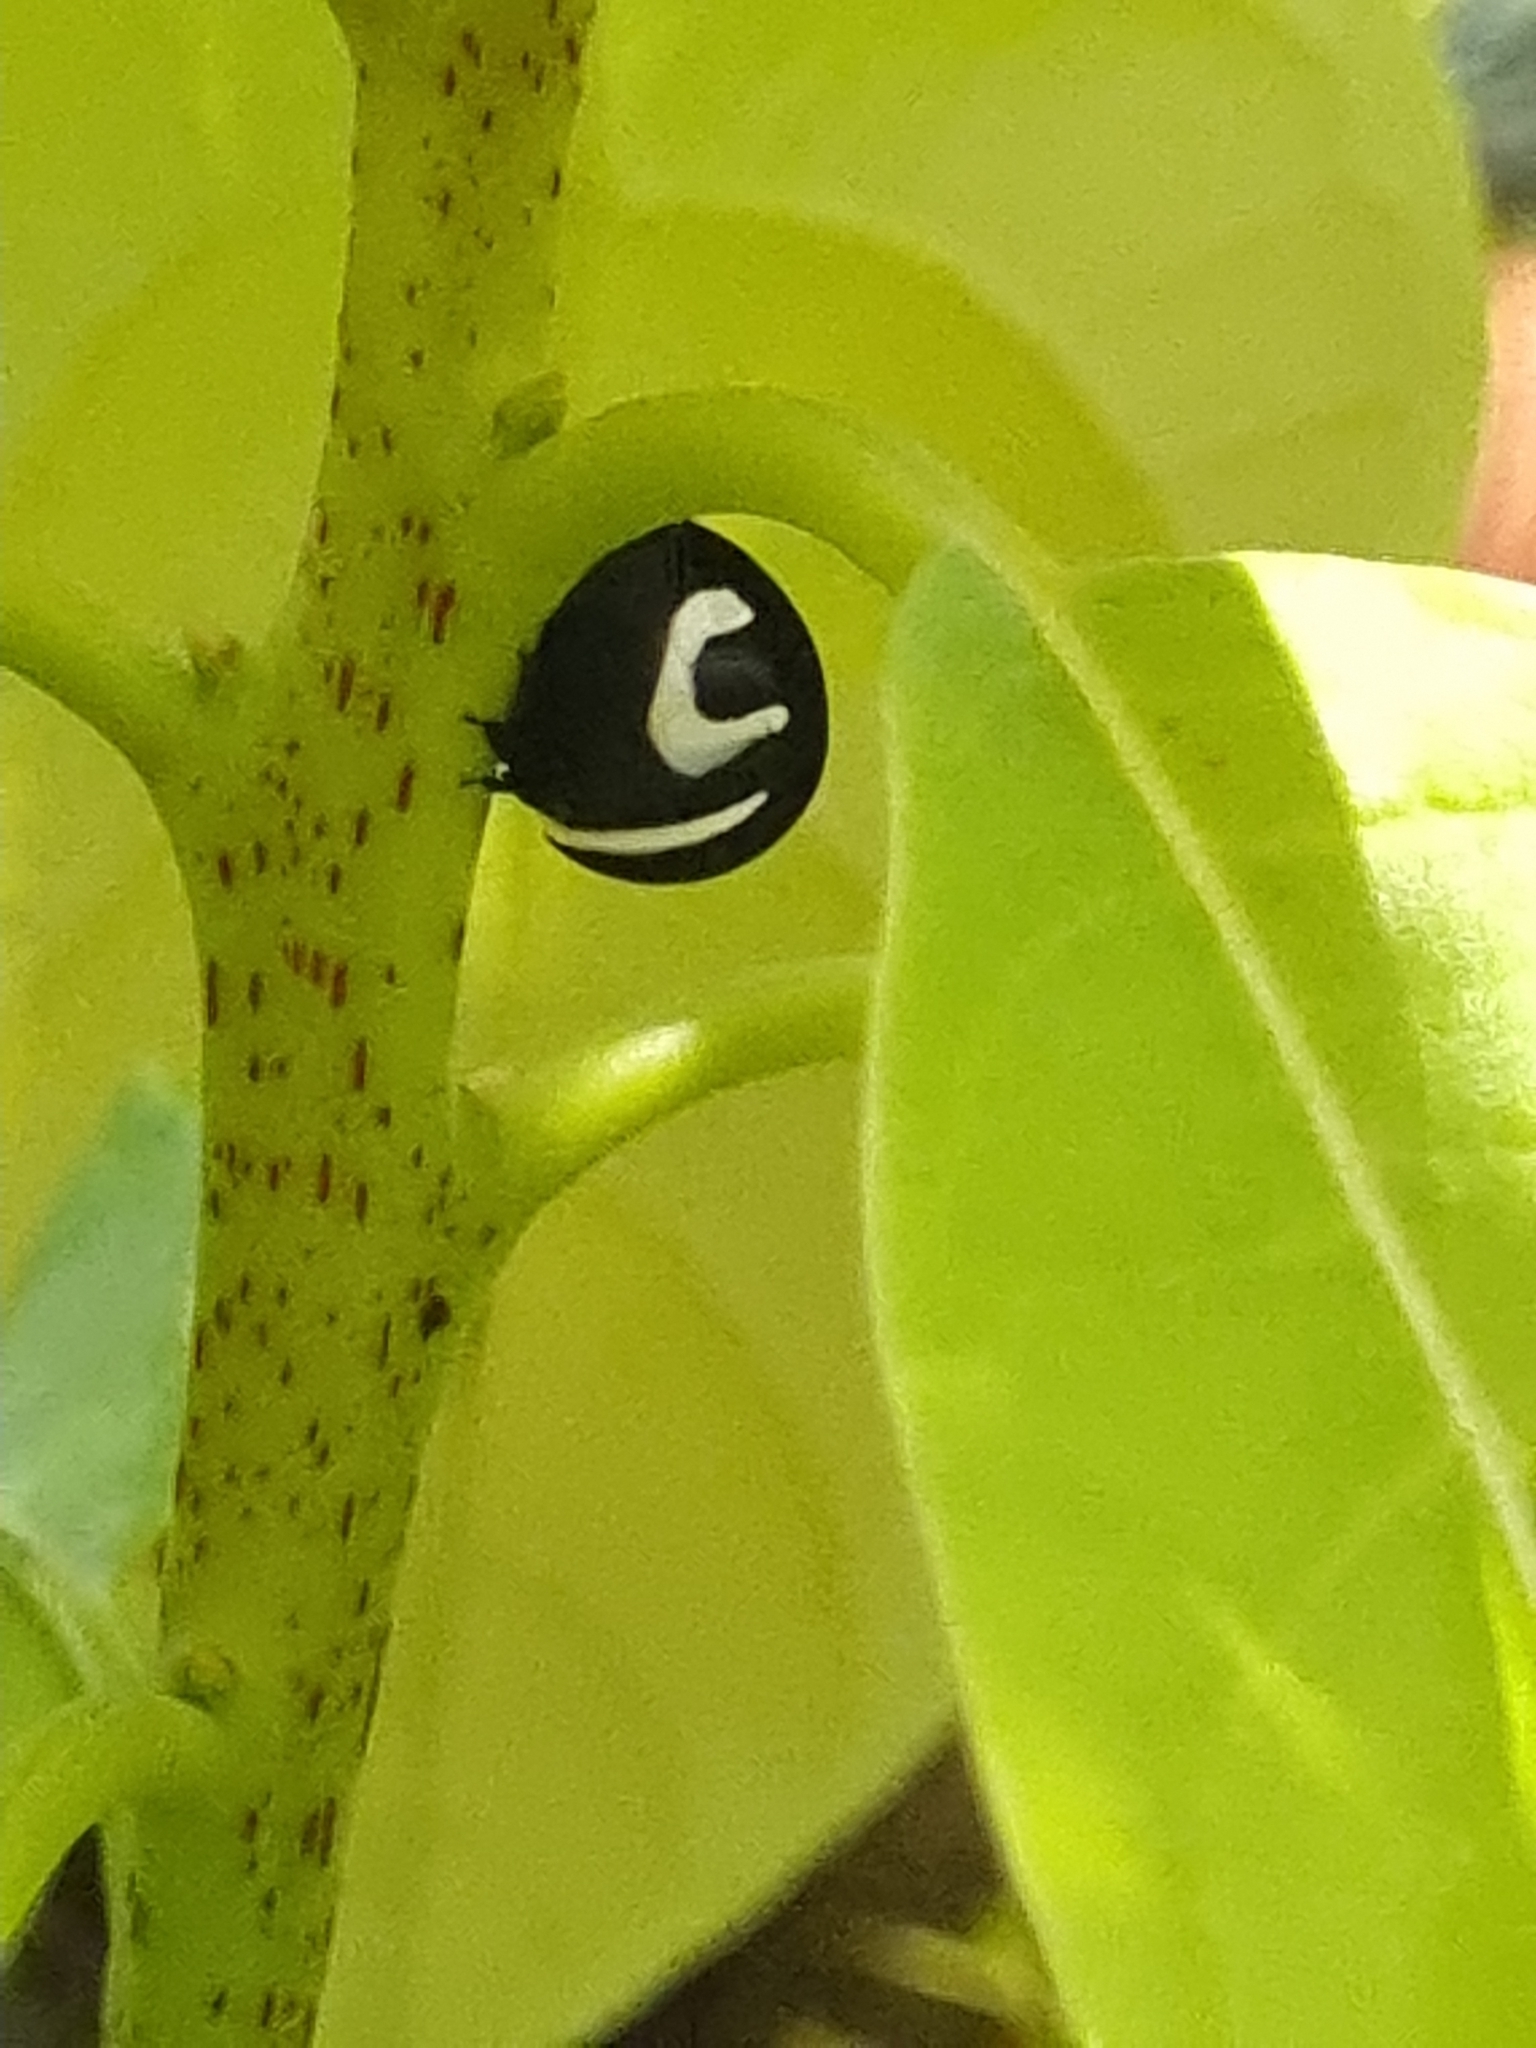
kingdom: Animalia
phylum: Arthropoda
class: Insecta
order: Hemiptera
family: Membracidae
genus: Membracis
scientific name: Membracis foliatafasciata
